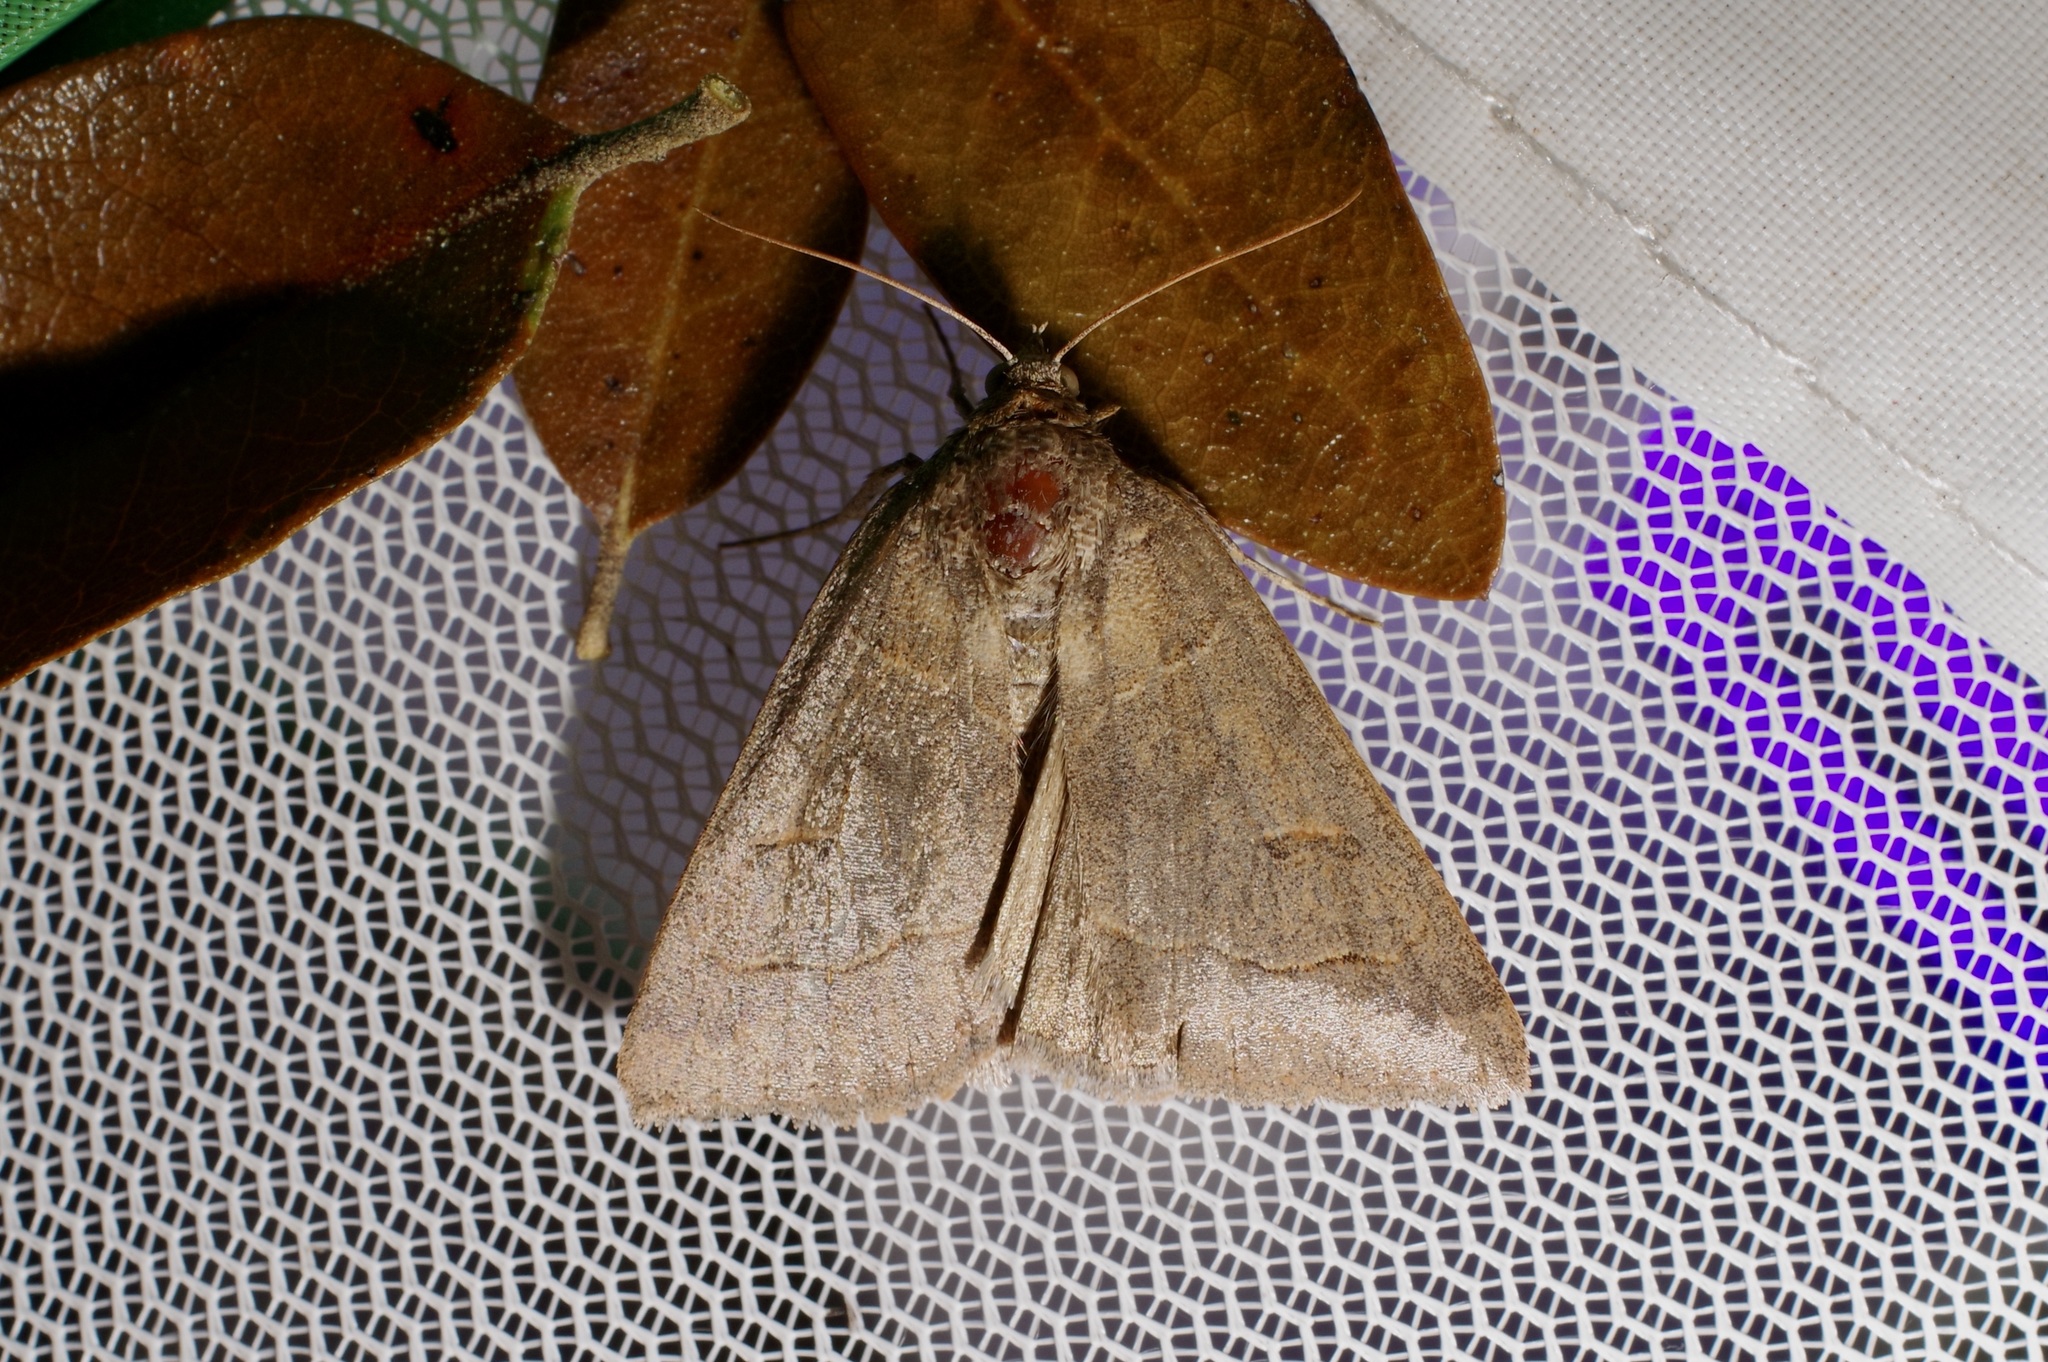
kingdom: Animalia
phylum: Arthropoda
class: Insecta
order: Lepidoptera
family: Erebidae
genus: Phoberia
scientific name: Phoberia atomaris
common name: Common oak moth
